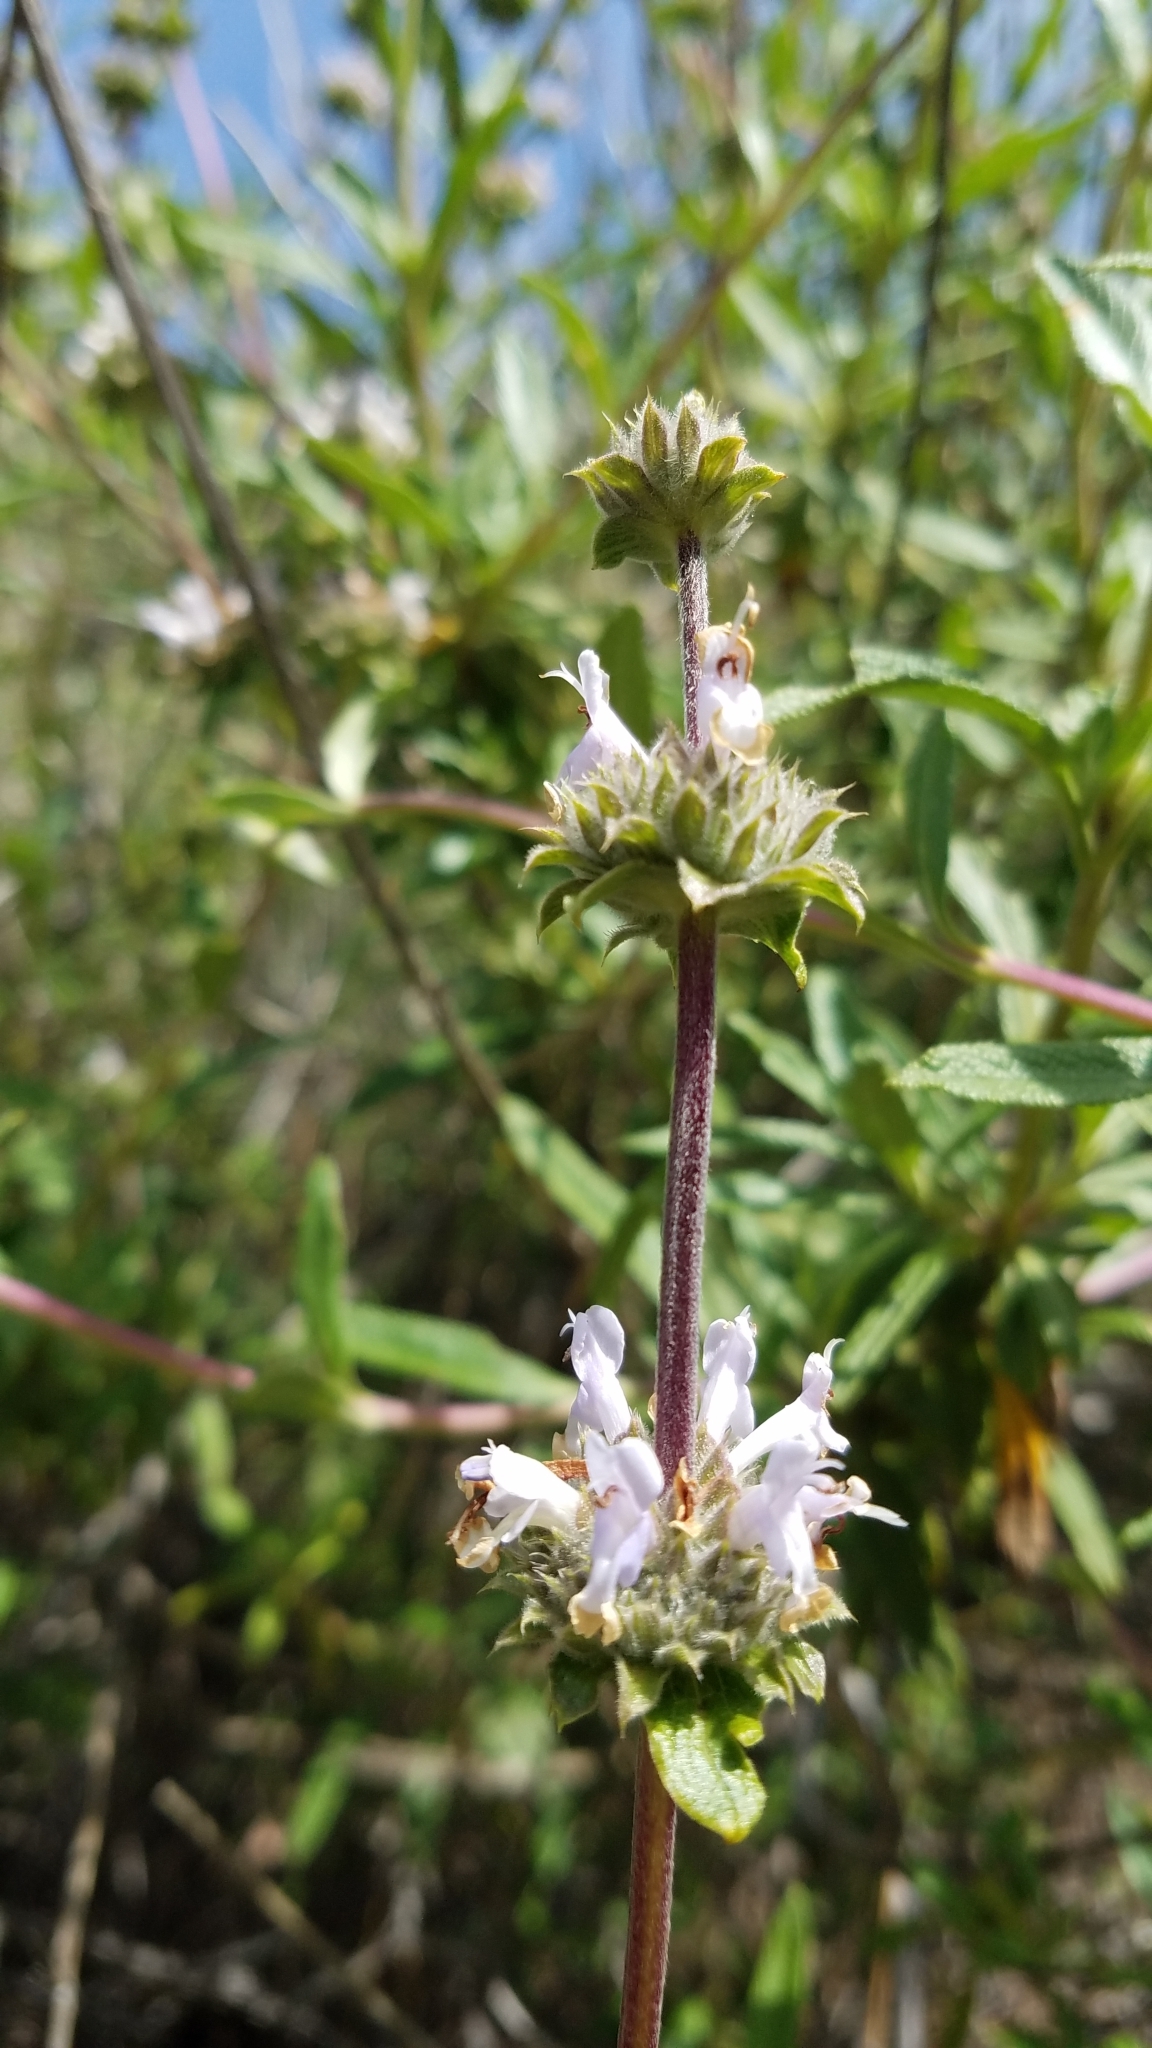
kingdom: Plantae
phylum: Tracheophyta
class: Magnoliopsida
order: Lamiales
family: Lamiaceae
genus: Salvia
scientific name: Salvia mellifera
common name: Black sage
